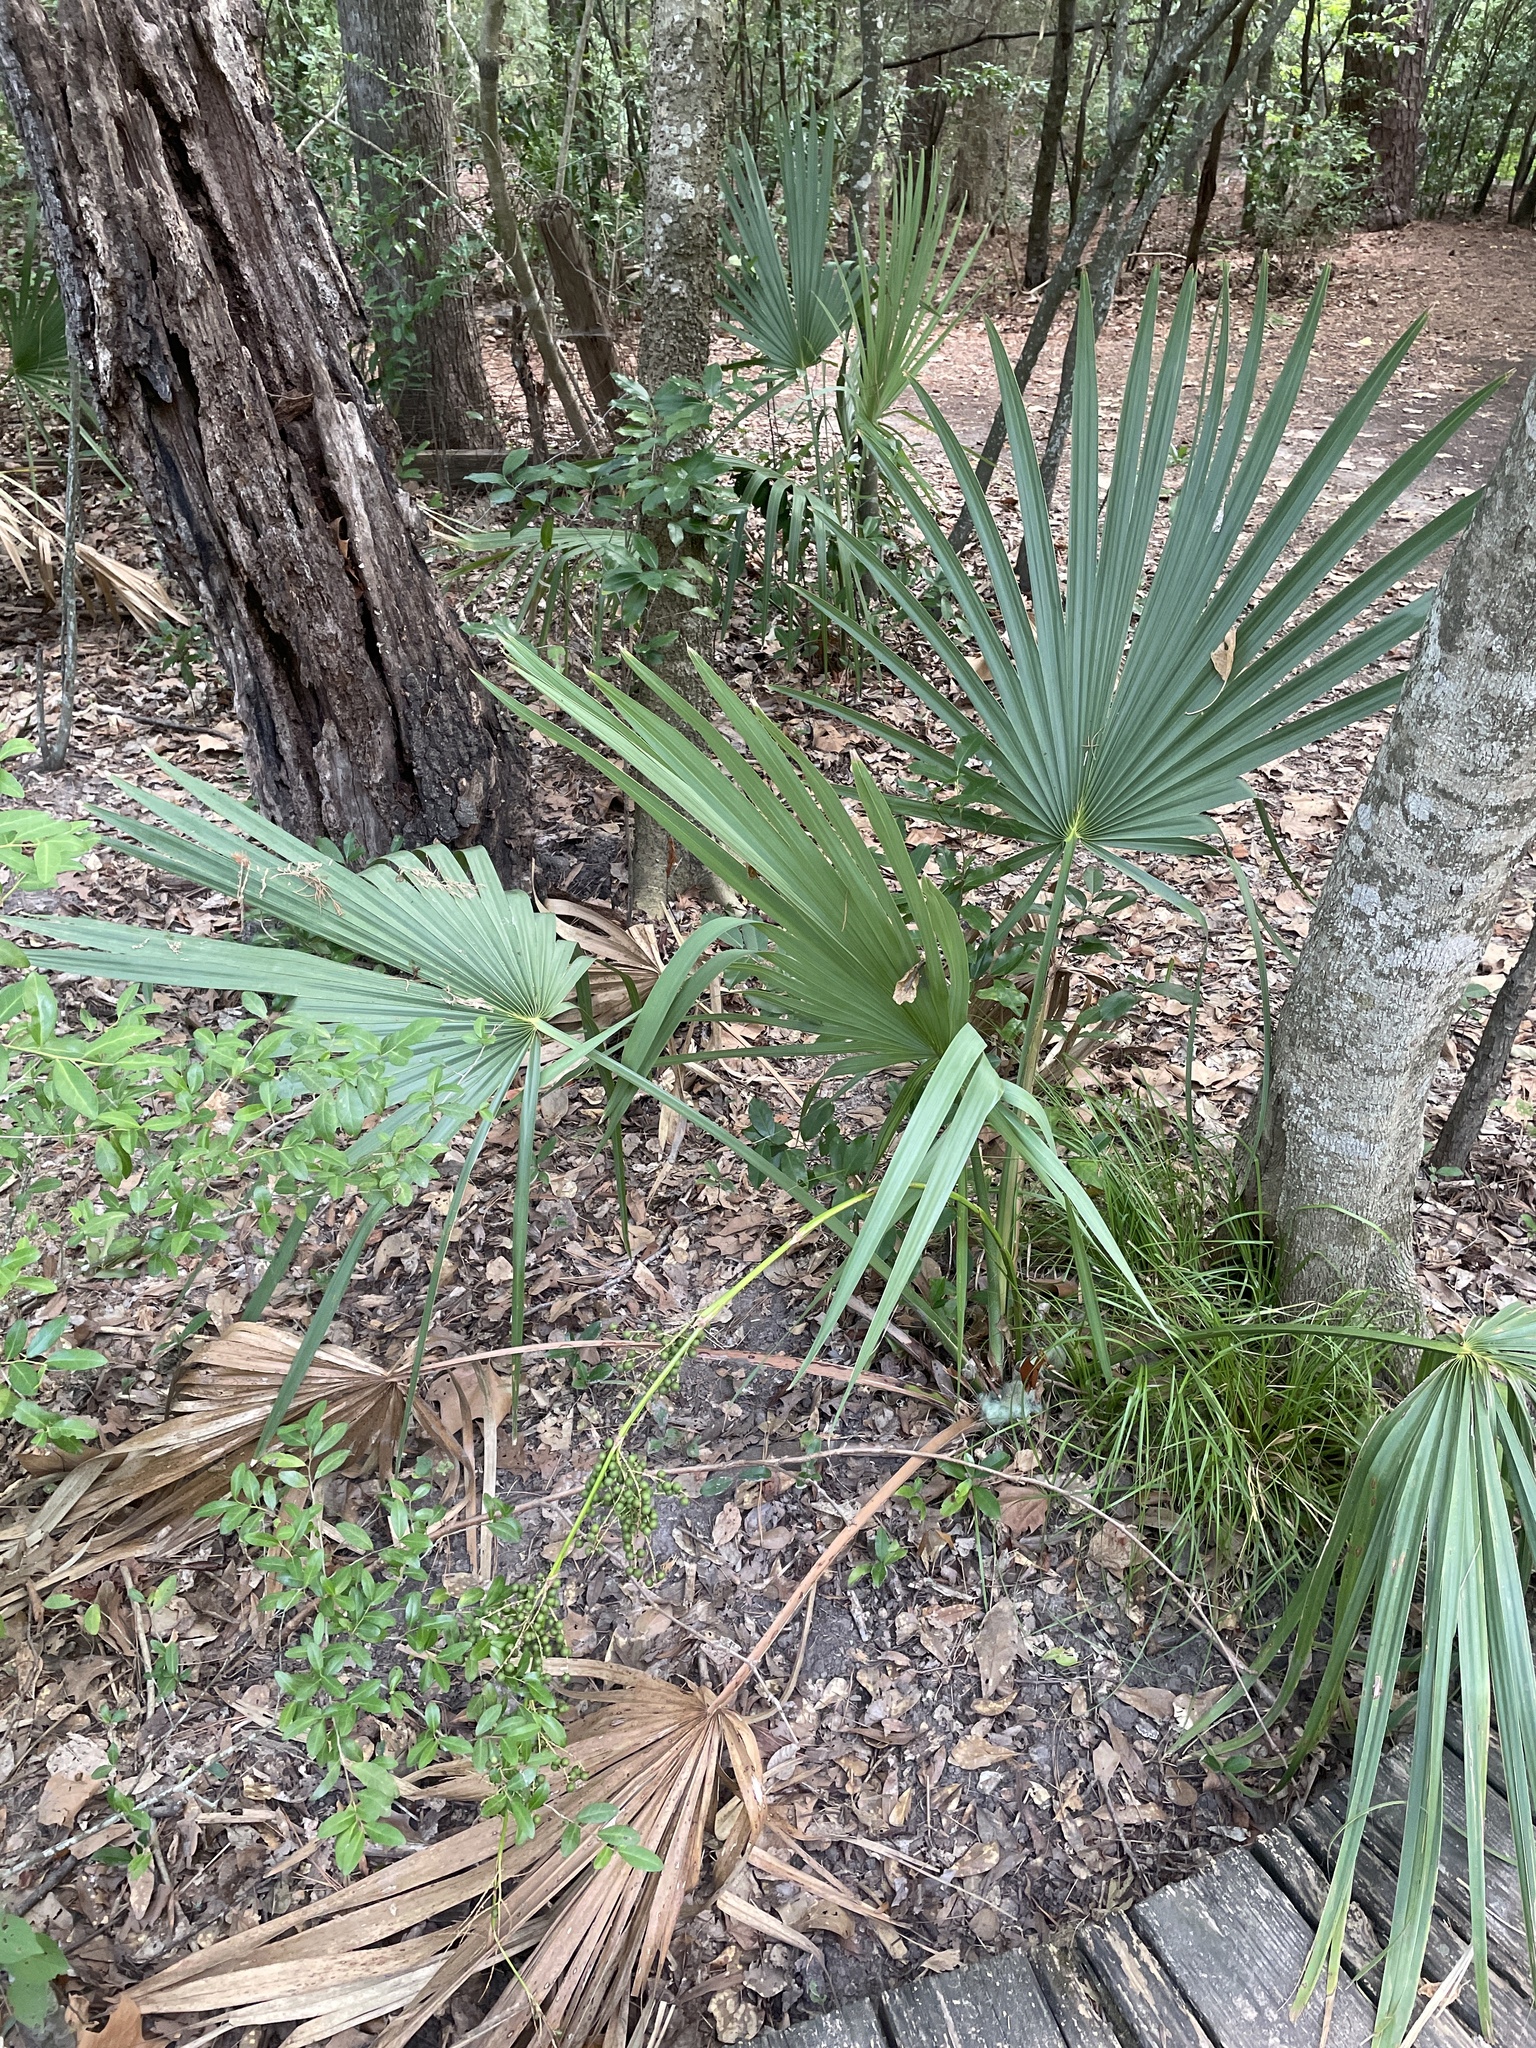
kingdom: Plantae
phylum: Tracheophyta
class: Liliopsida
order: Arecales
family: Arecaceae
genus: Sabal
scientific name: Sabal minor
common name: Dwarf palmetto
